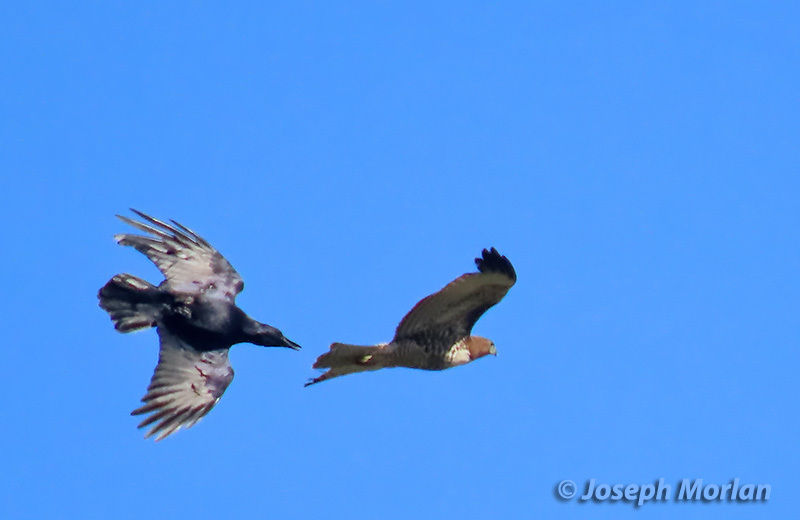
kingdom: Animalia
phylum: Chordata
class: Aves
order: Accipitriformes
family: Accipitridae
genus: Buteo
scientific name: Buteo jamaicensis
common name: Red-tailed hawk
